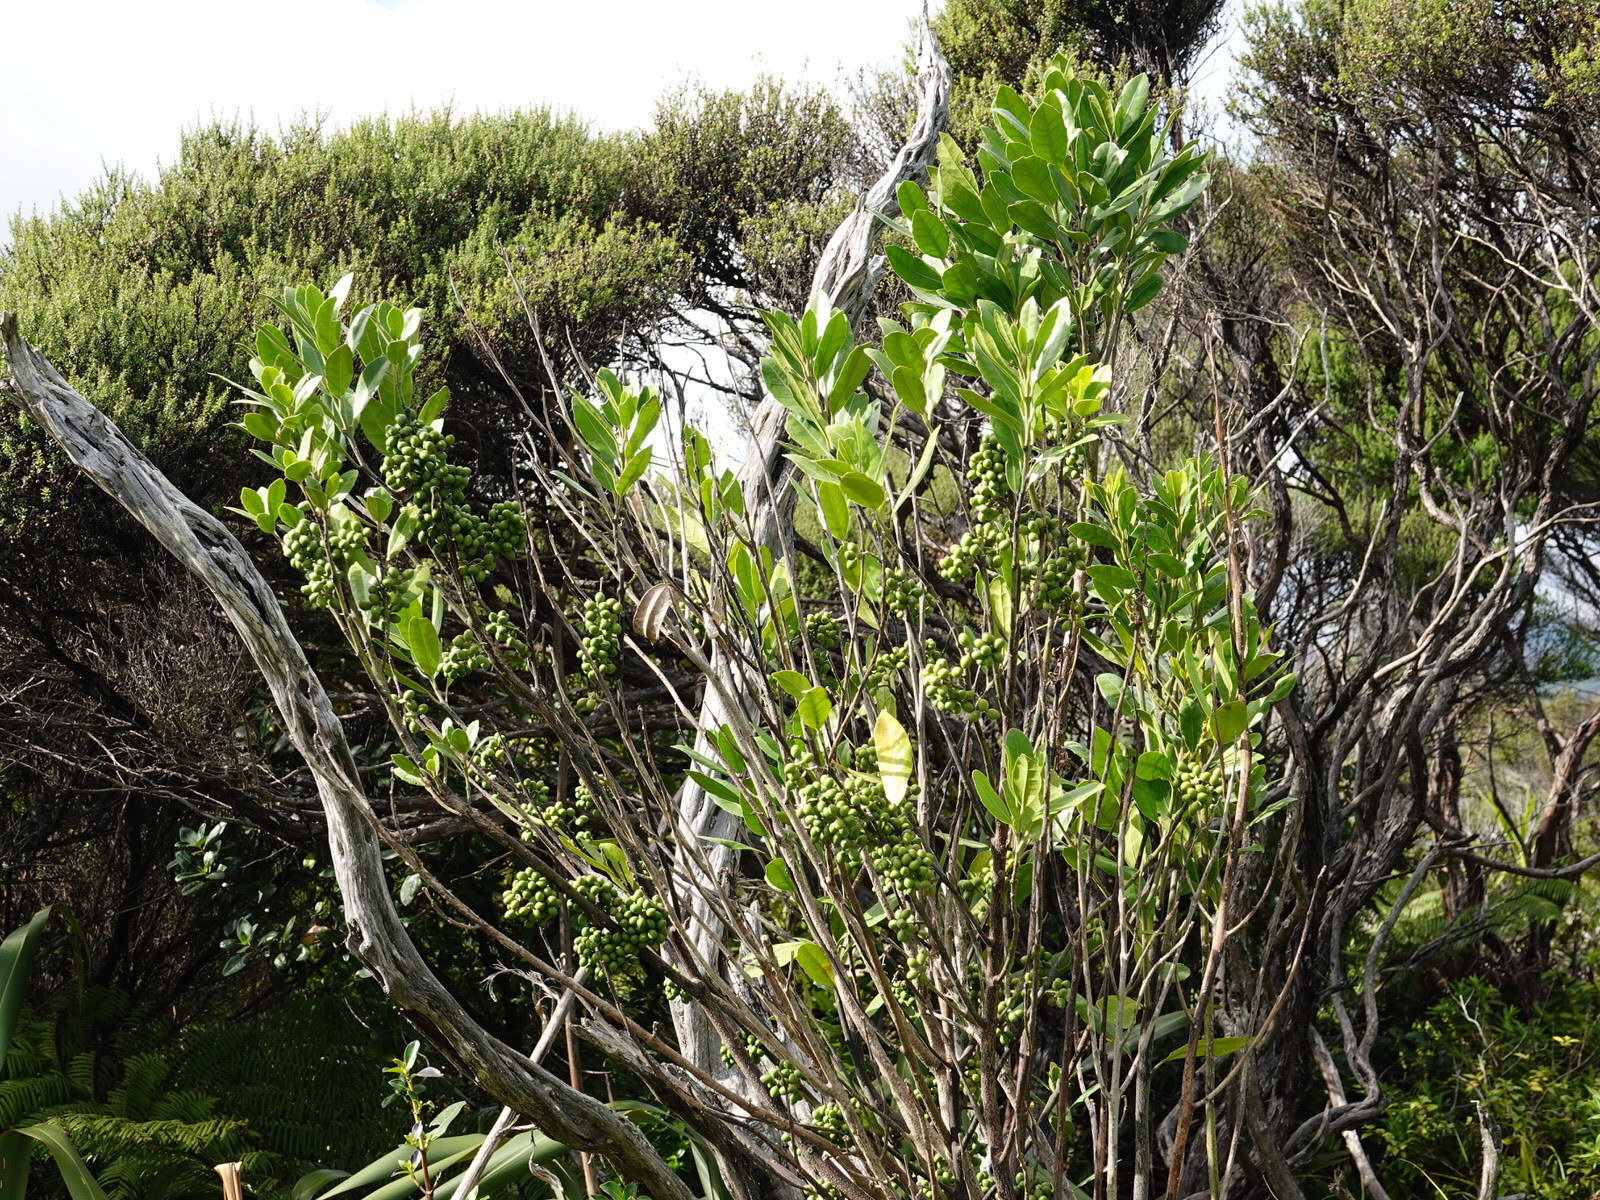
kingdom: Plantae
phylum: Tracheophyta
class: Magnoliopsida
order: Laurales
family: Monimiaceae
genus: Hedycarya
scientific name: Hedycarya arborea
